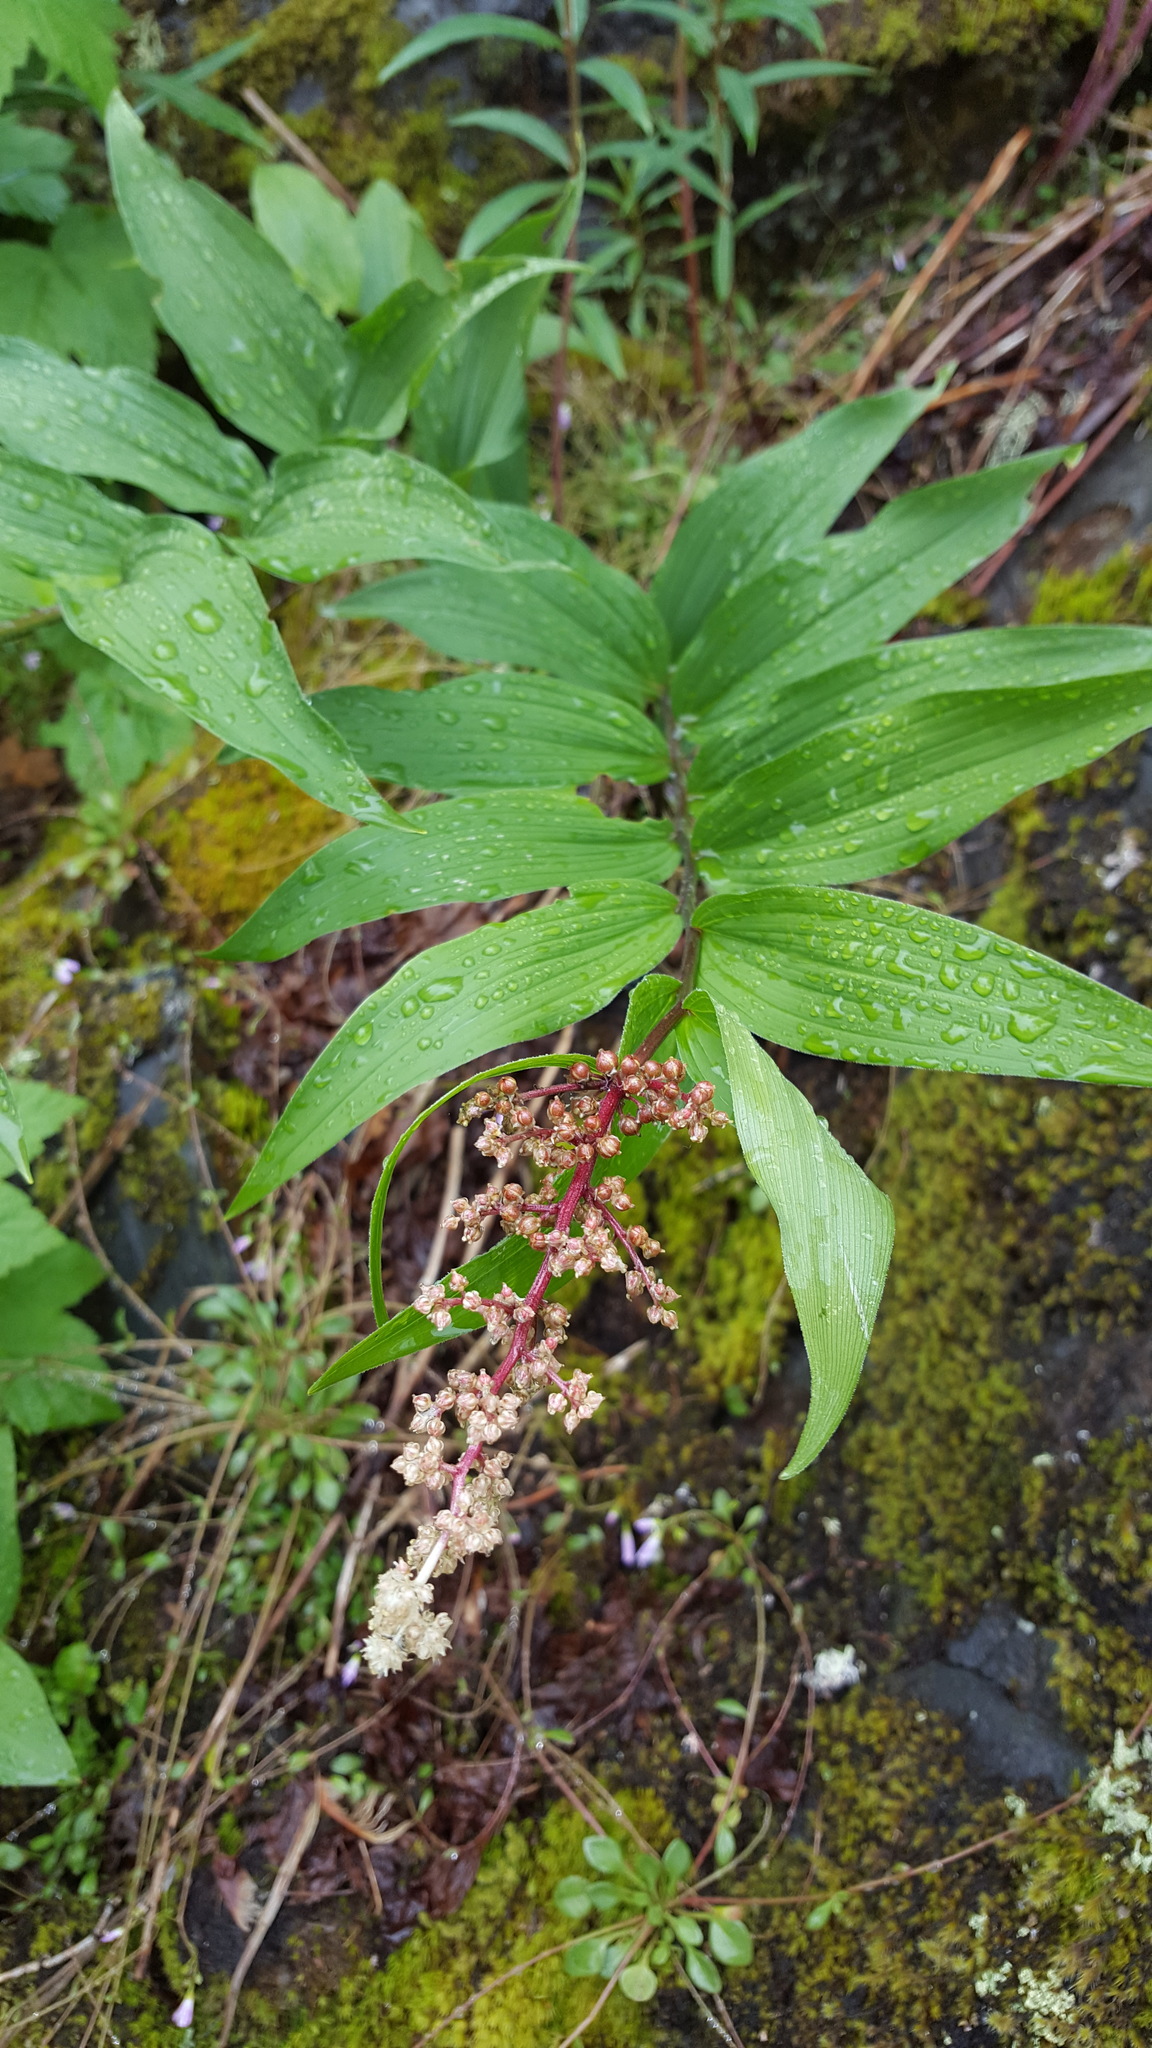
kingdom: Plantae
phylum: Tracheophyta
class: Liliopsida
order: Asparagales
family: Asparagaceae
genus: Maianthemum
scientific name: Maianthemum racemosum
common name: False spikenard
